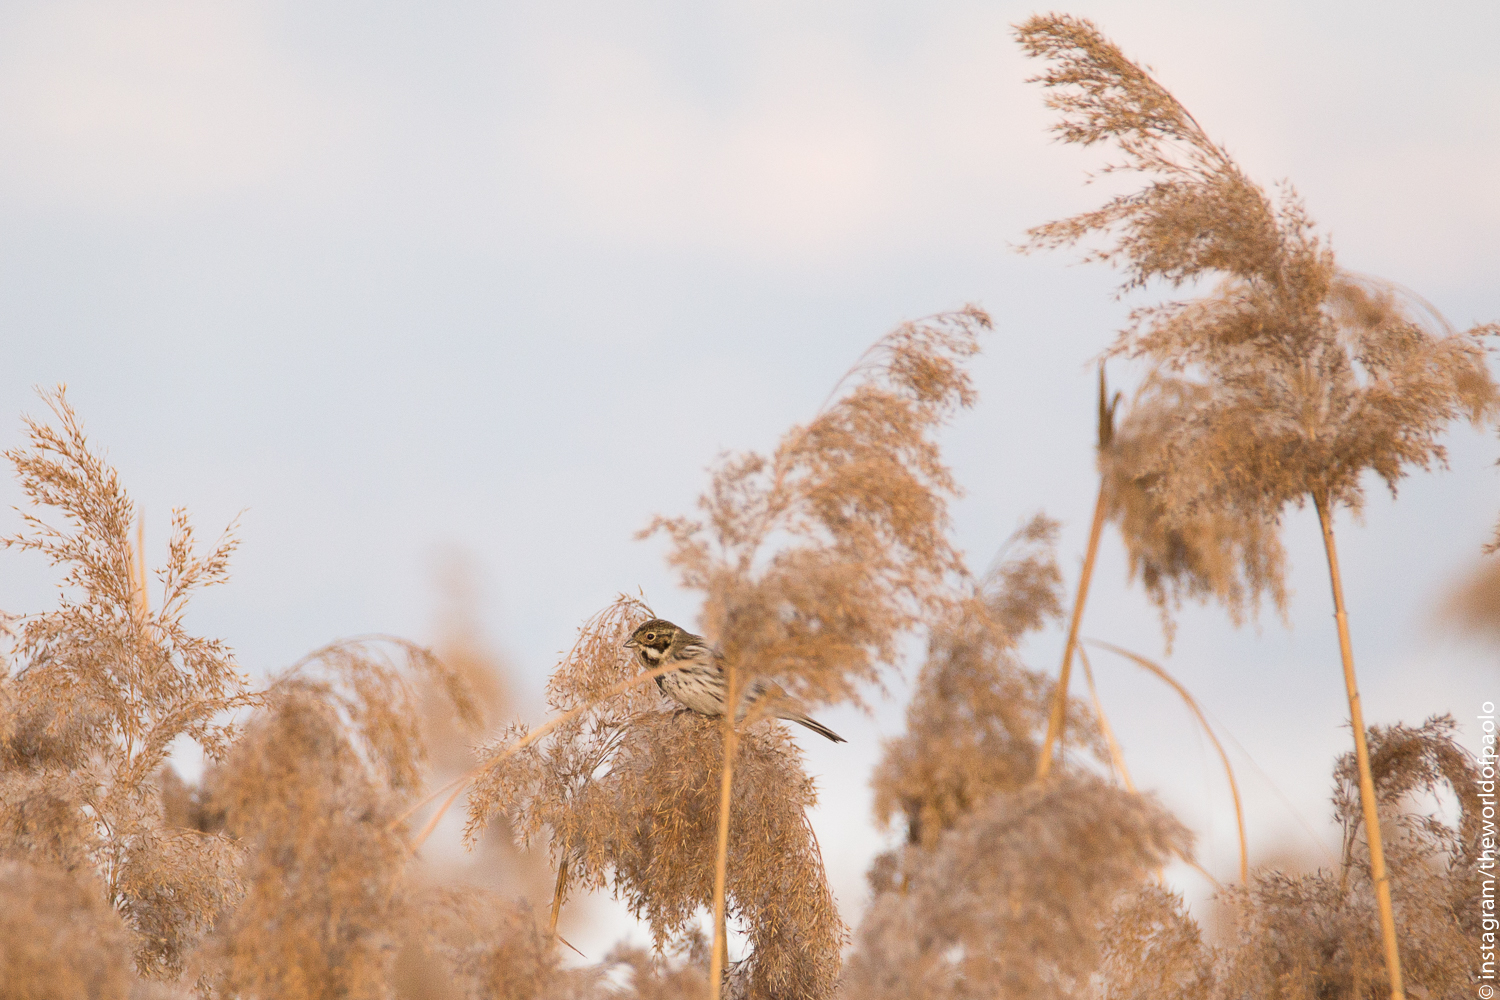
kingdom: Animalia
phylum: Chordata
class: Aves
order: Passeriformes
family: Emberizidae
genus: Emberiza
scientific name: Emberiza schoeniclus
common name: Reed bunting
